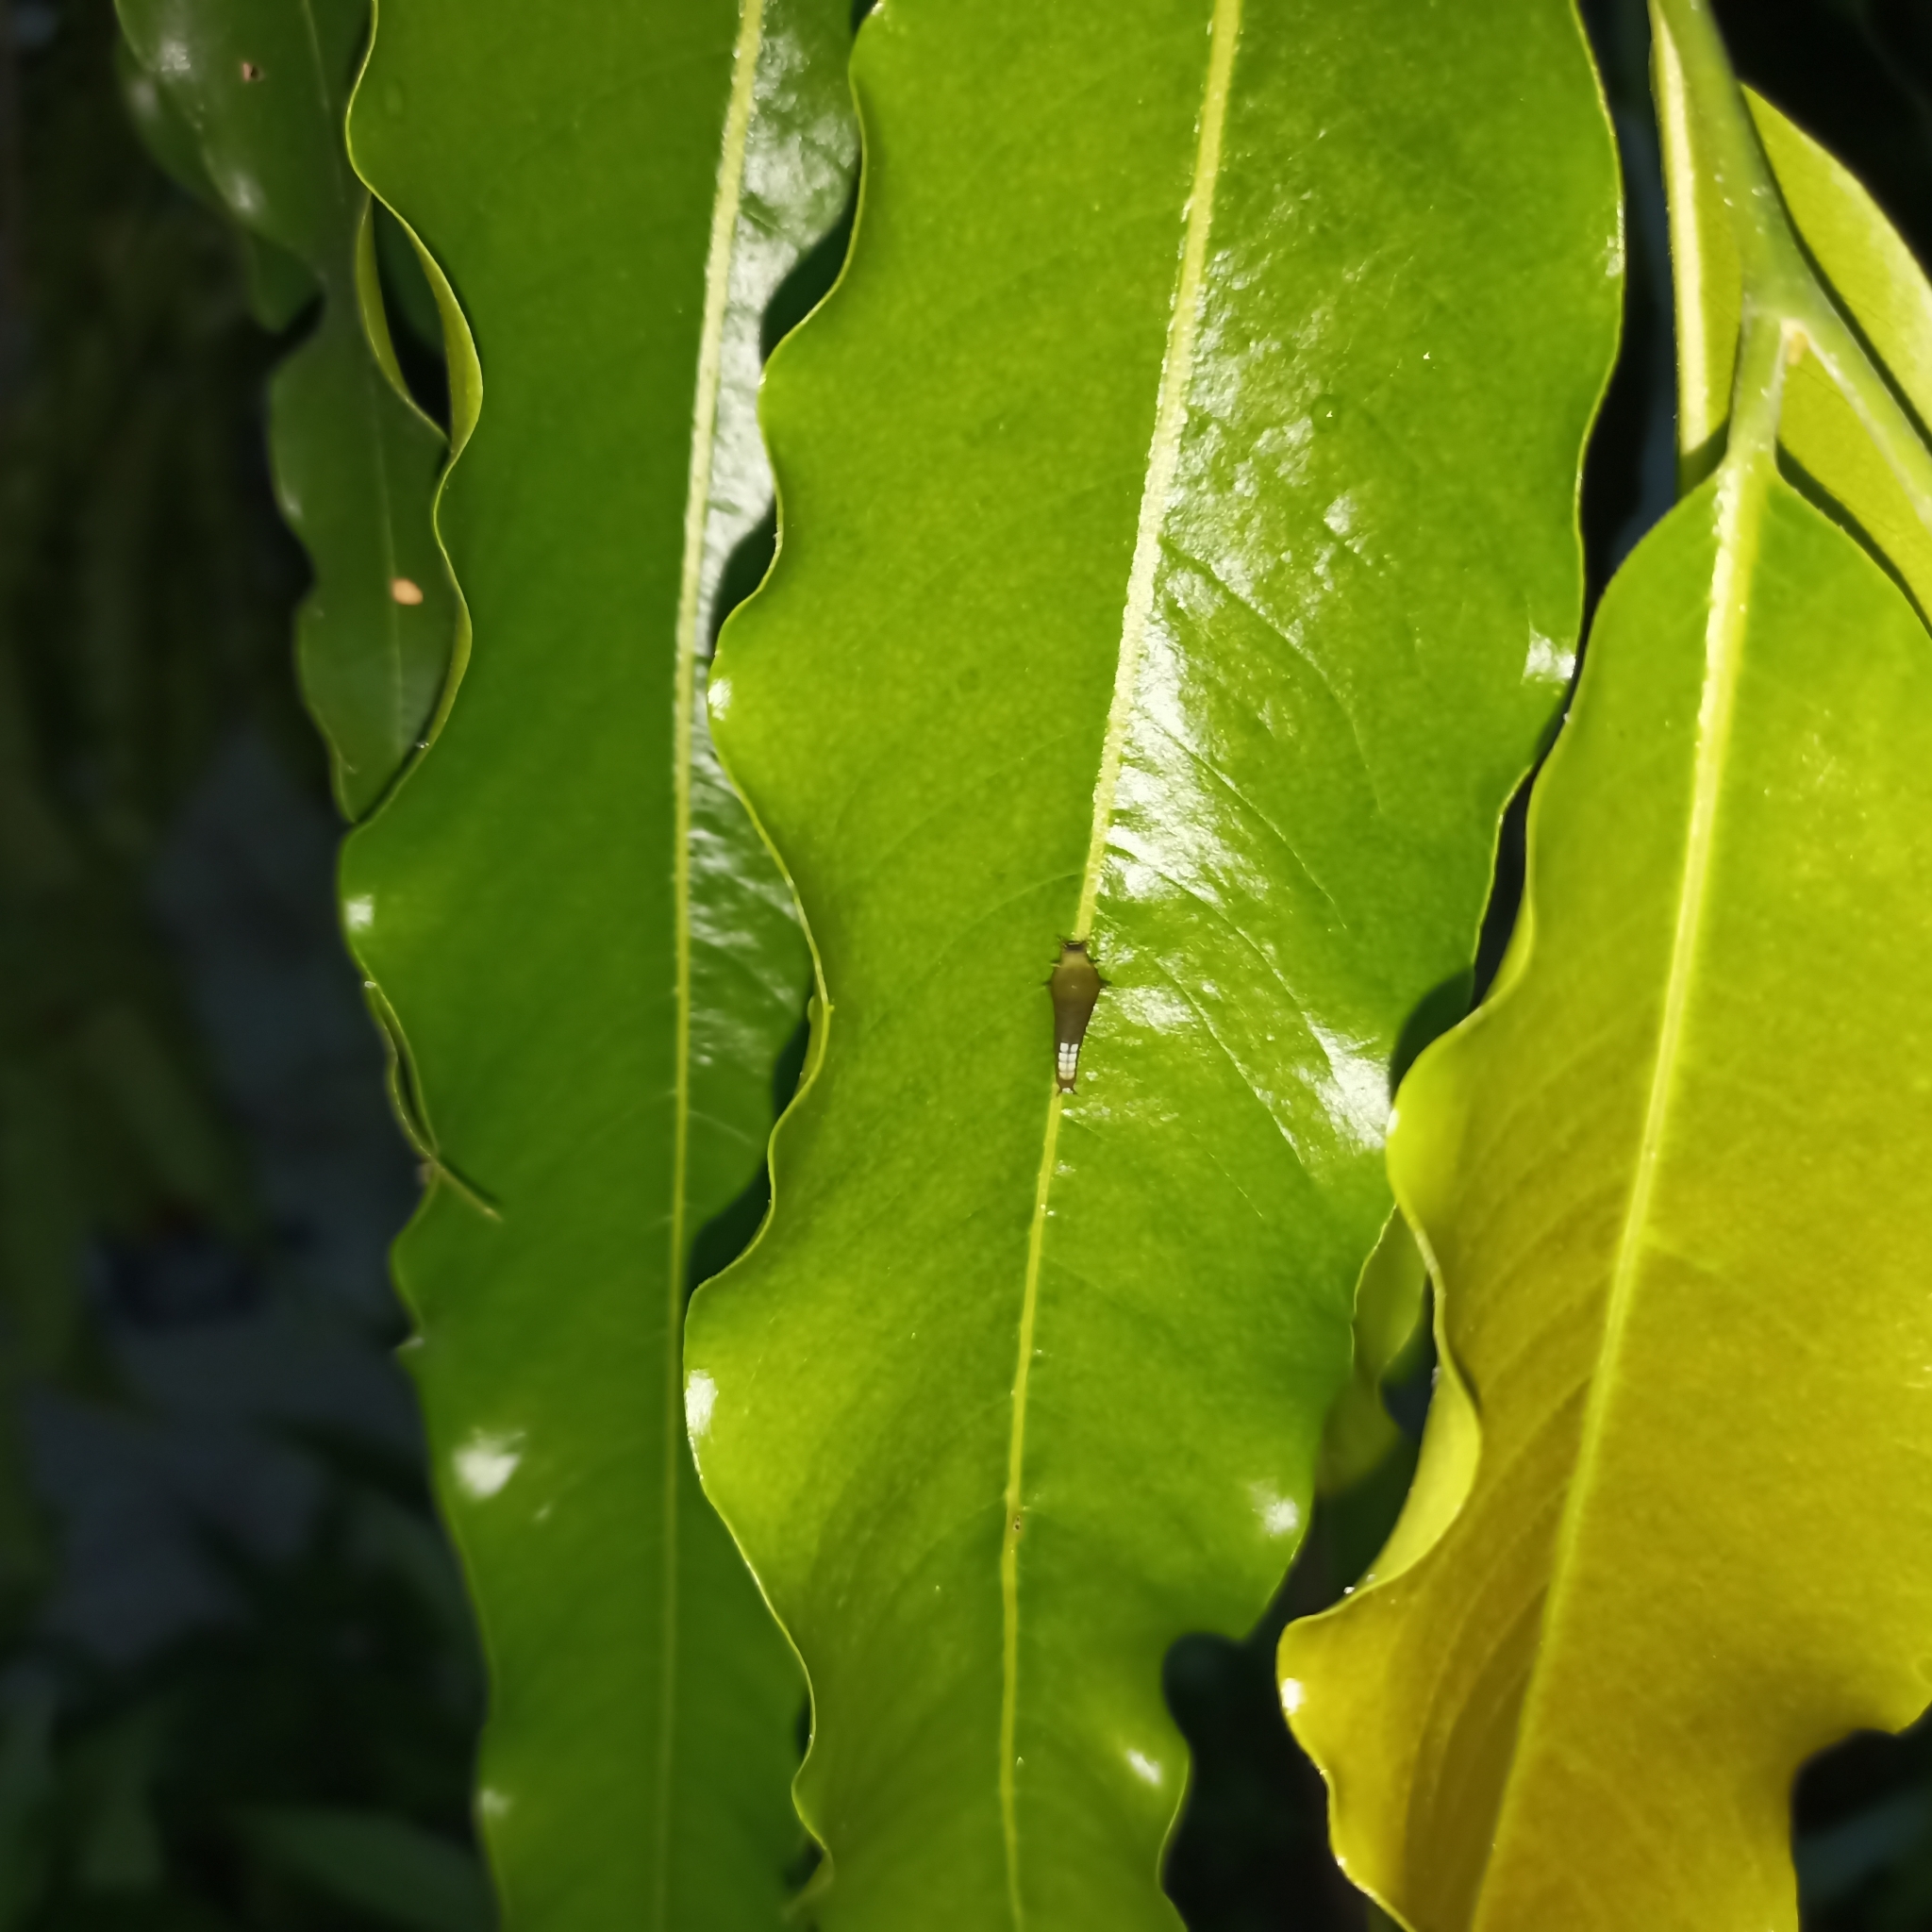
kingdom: Animalia
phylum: Arthropoda
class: Insecta
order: Lepidoptera
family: Papilionidae
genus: Graphium
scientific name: Graphium agamemnon
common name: Tailed jay
